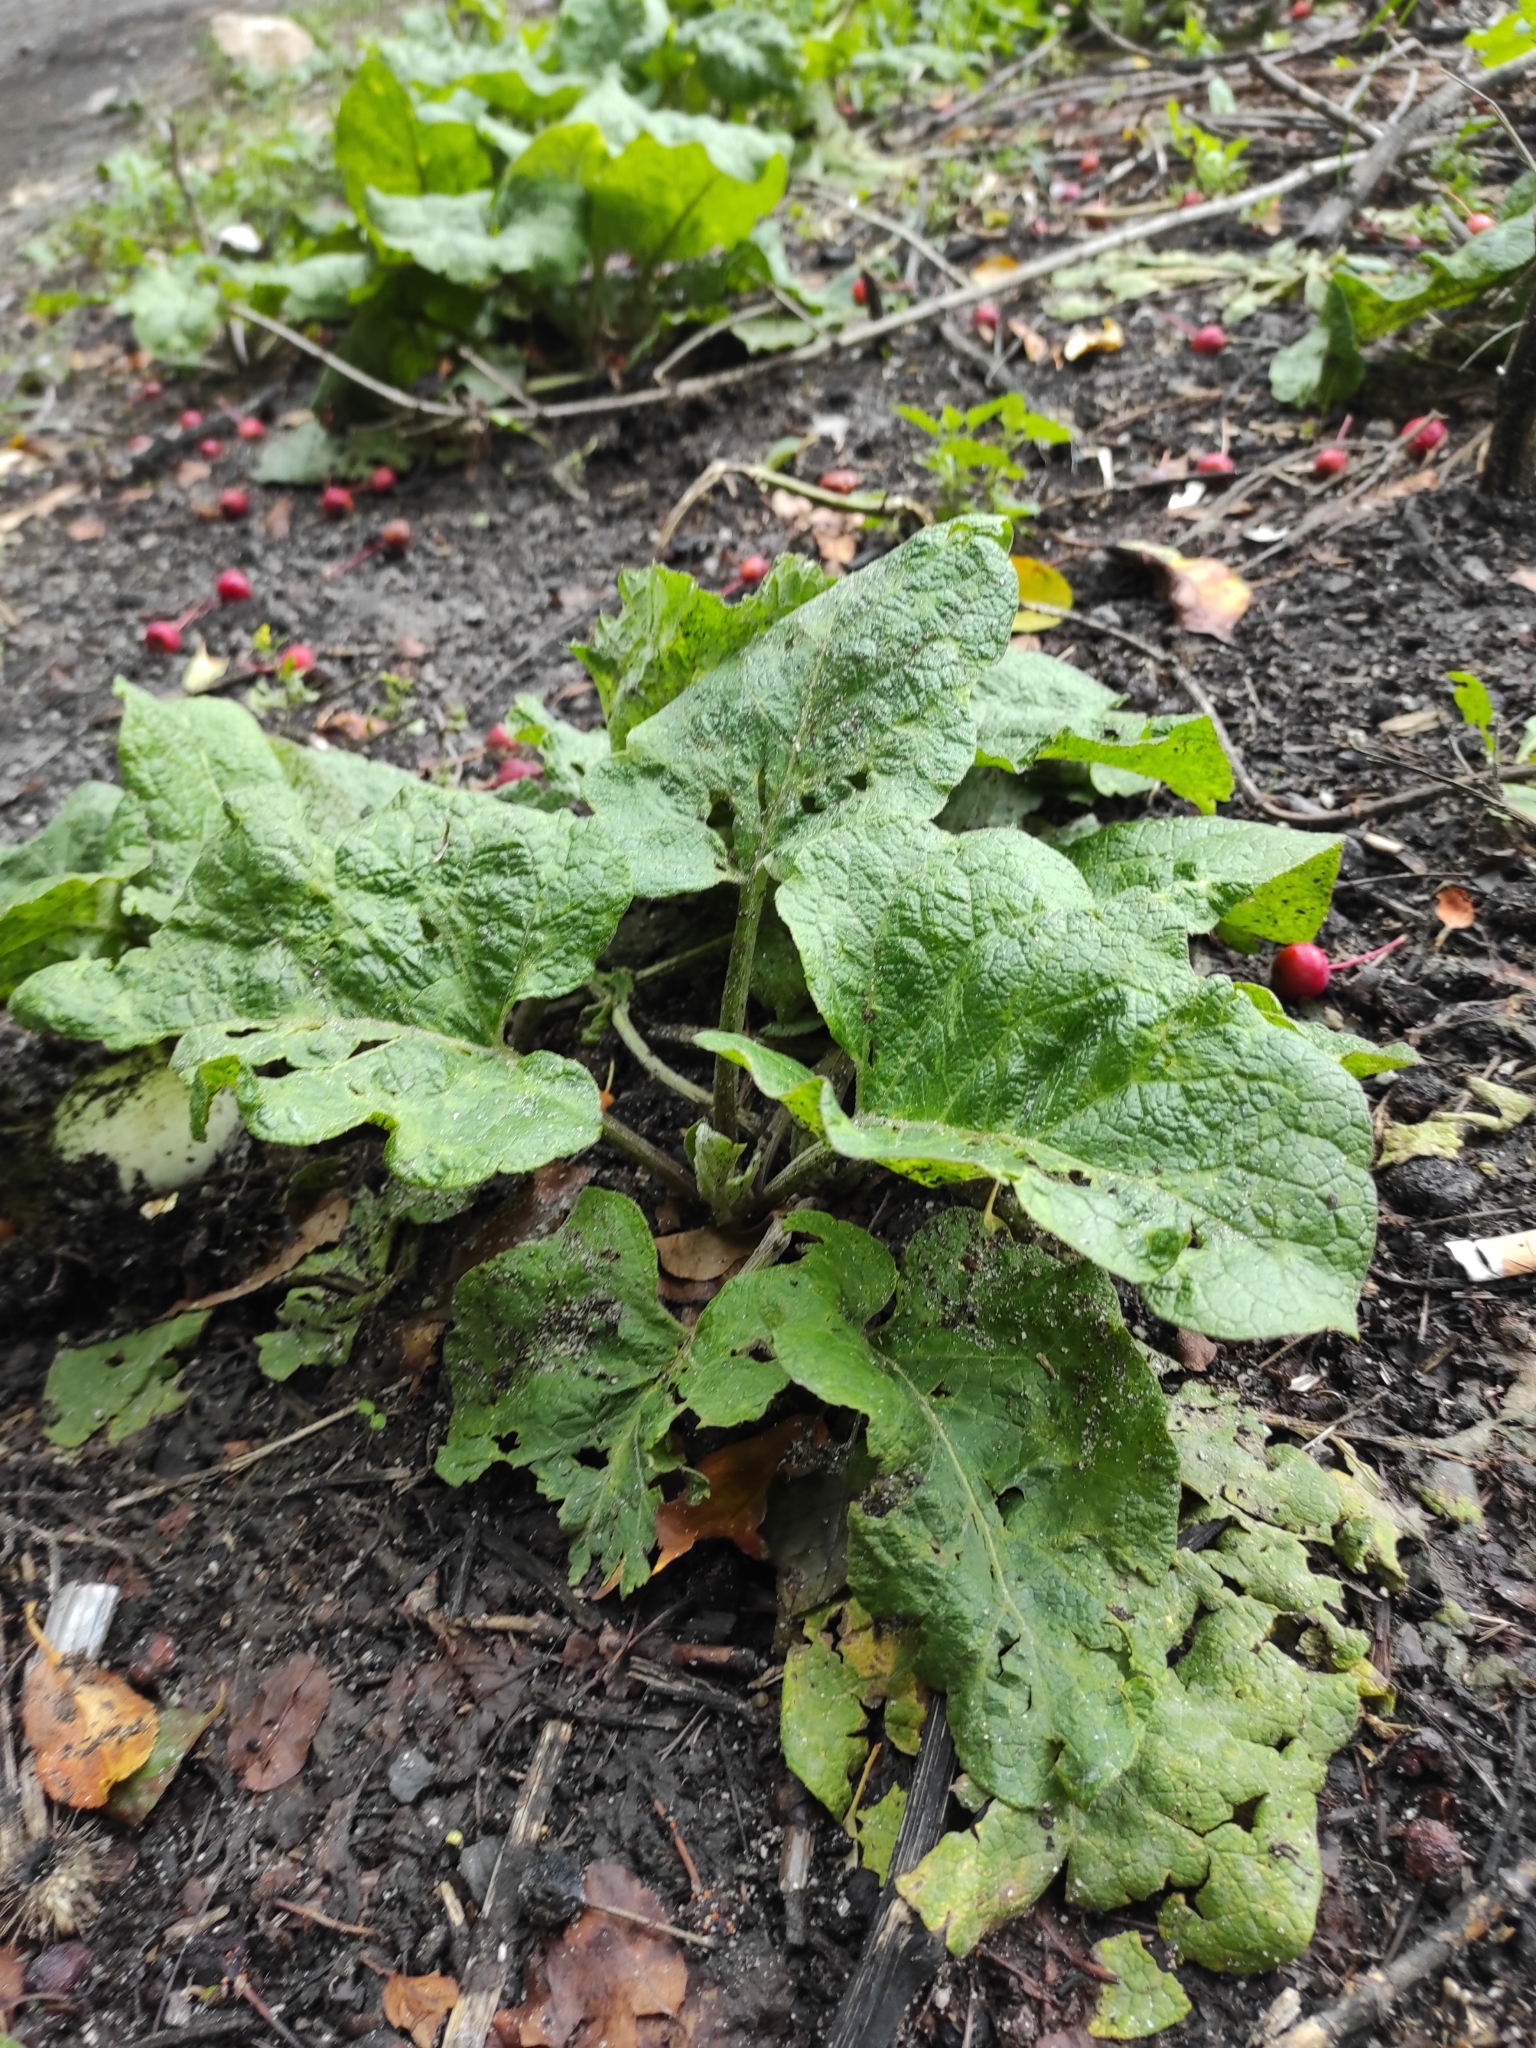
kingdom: Plantae
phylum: Tracheophyta
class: Magnoliopsida
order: Asterales
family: Asteraceae
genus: Arctium
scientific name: Arctium tomentosum
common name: Woolly burdock
